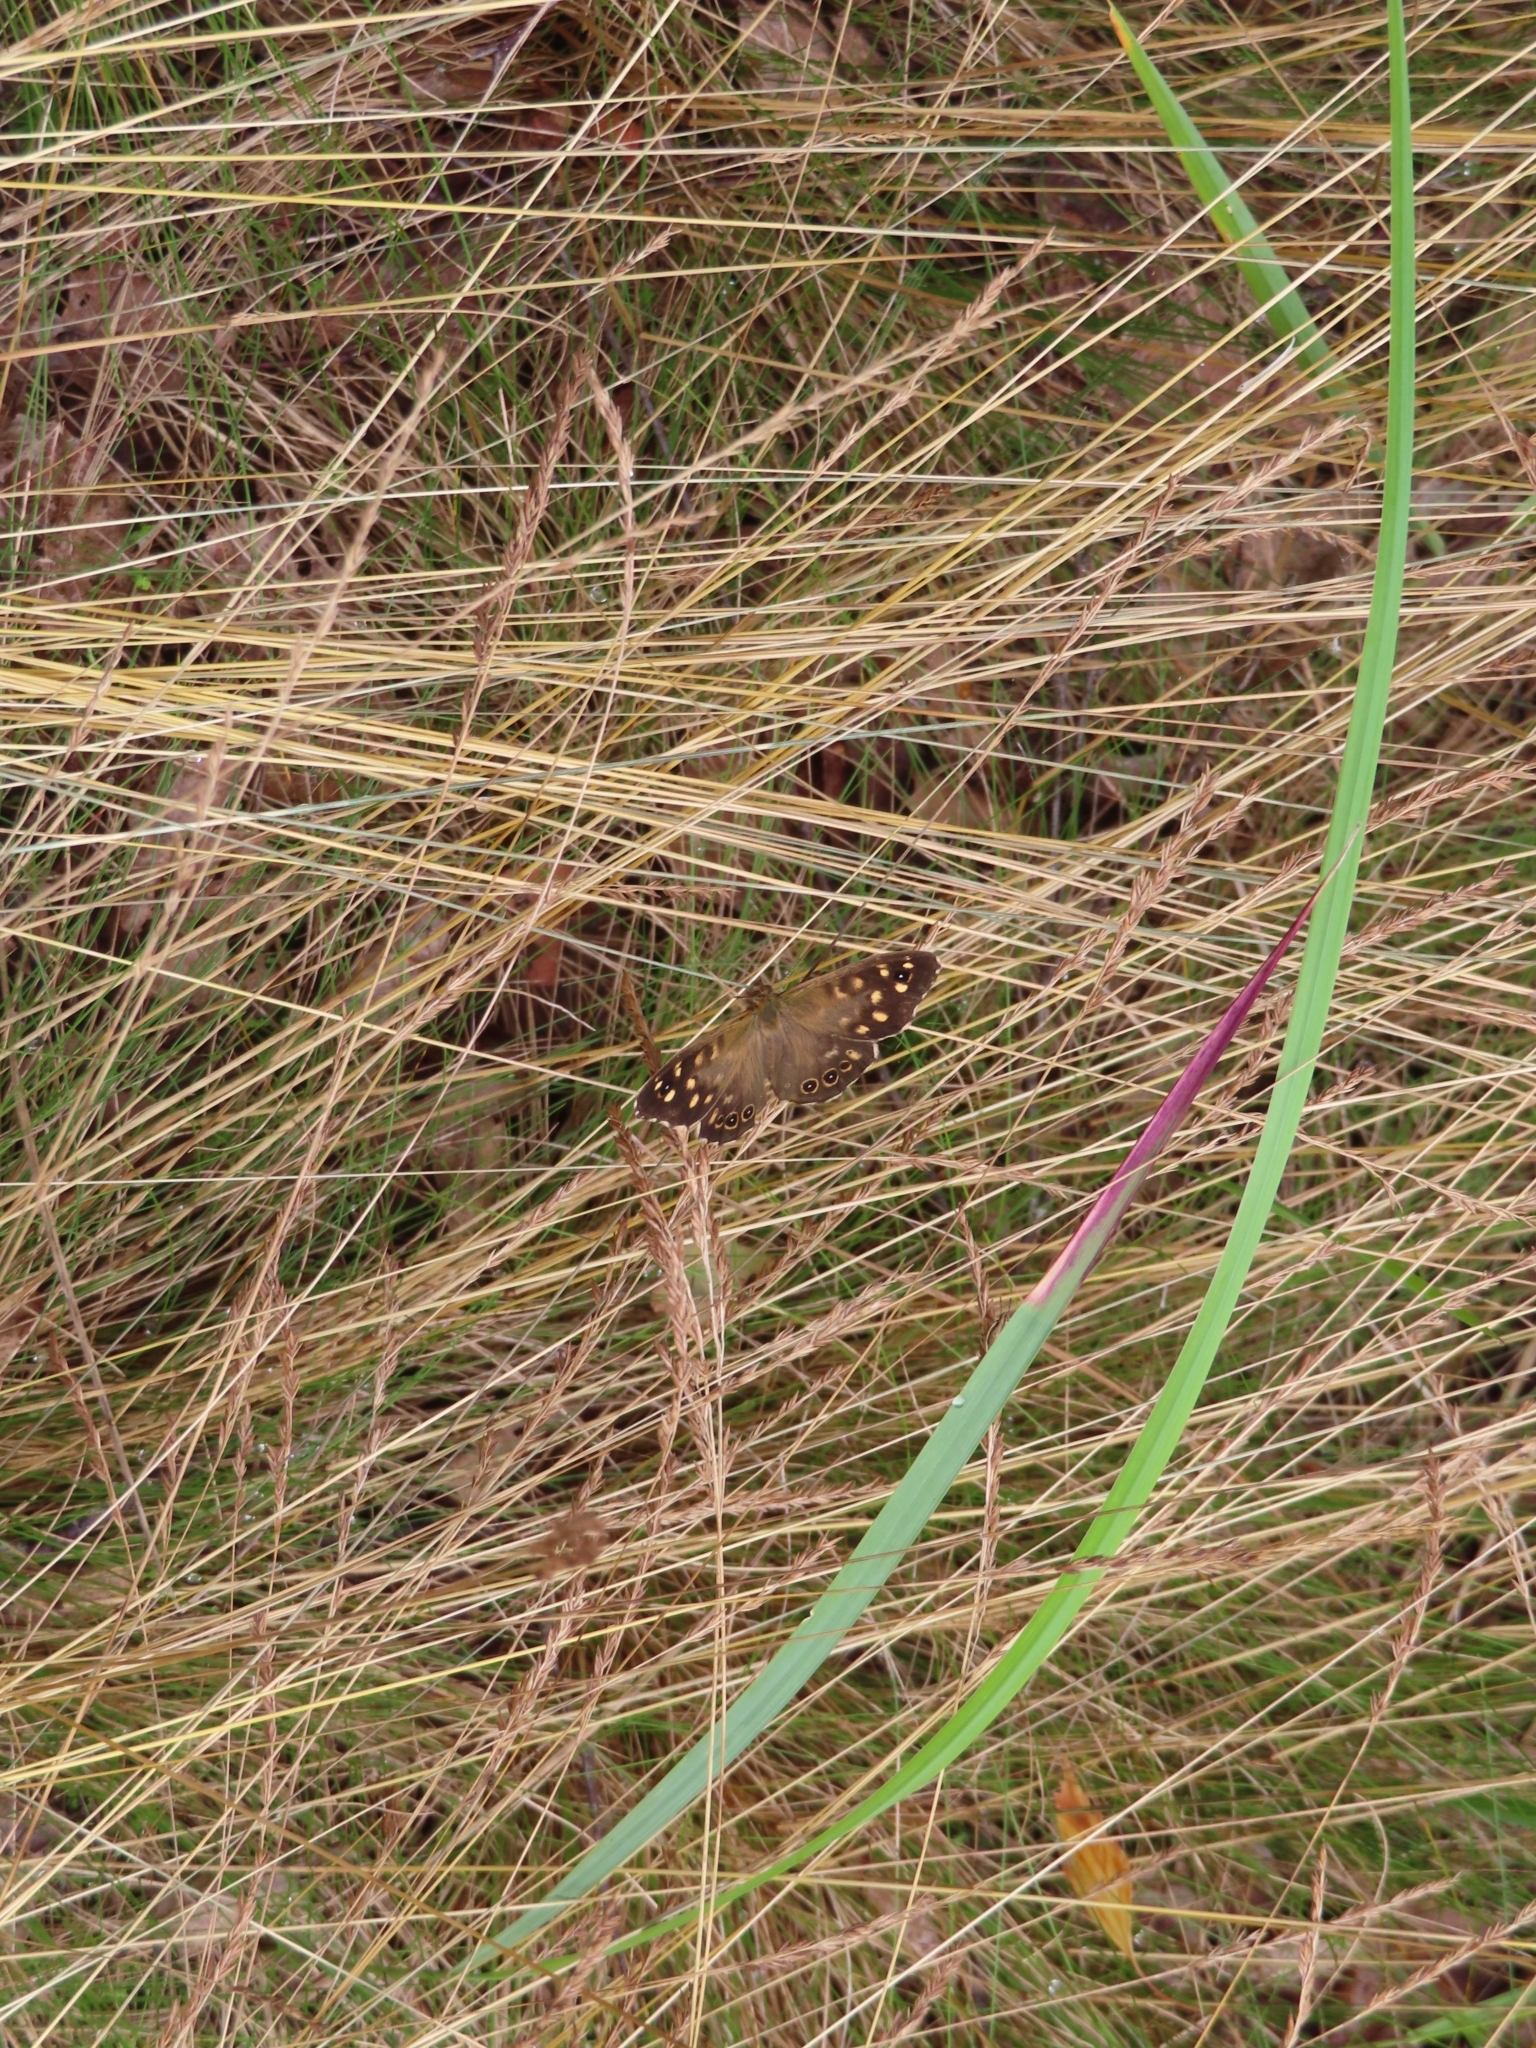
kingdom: Animalia
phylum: Arthropoda
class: Insecta
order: Lepidoptera
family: Nymphalidae
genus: Pararge
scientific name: Pararge aegeria
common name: Speckled wood
